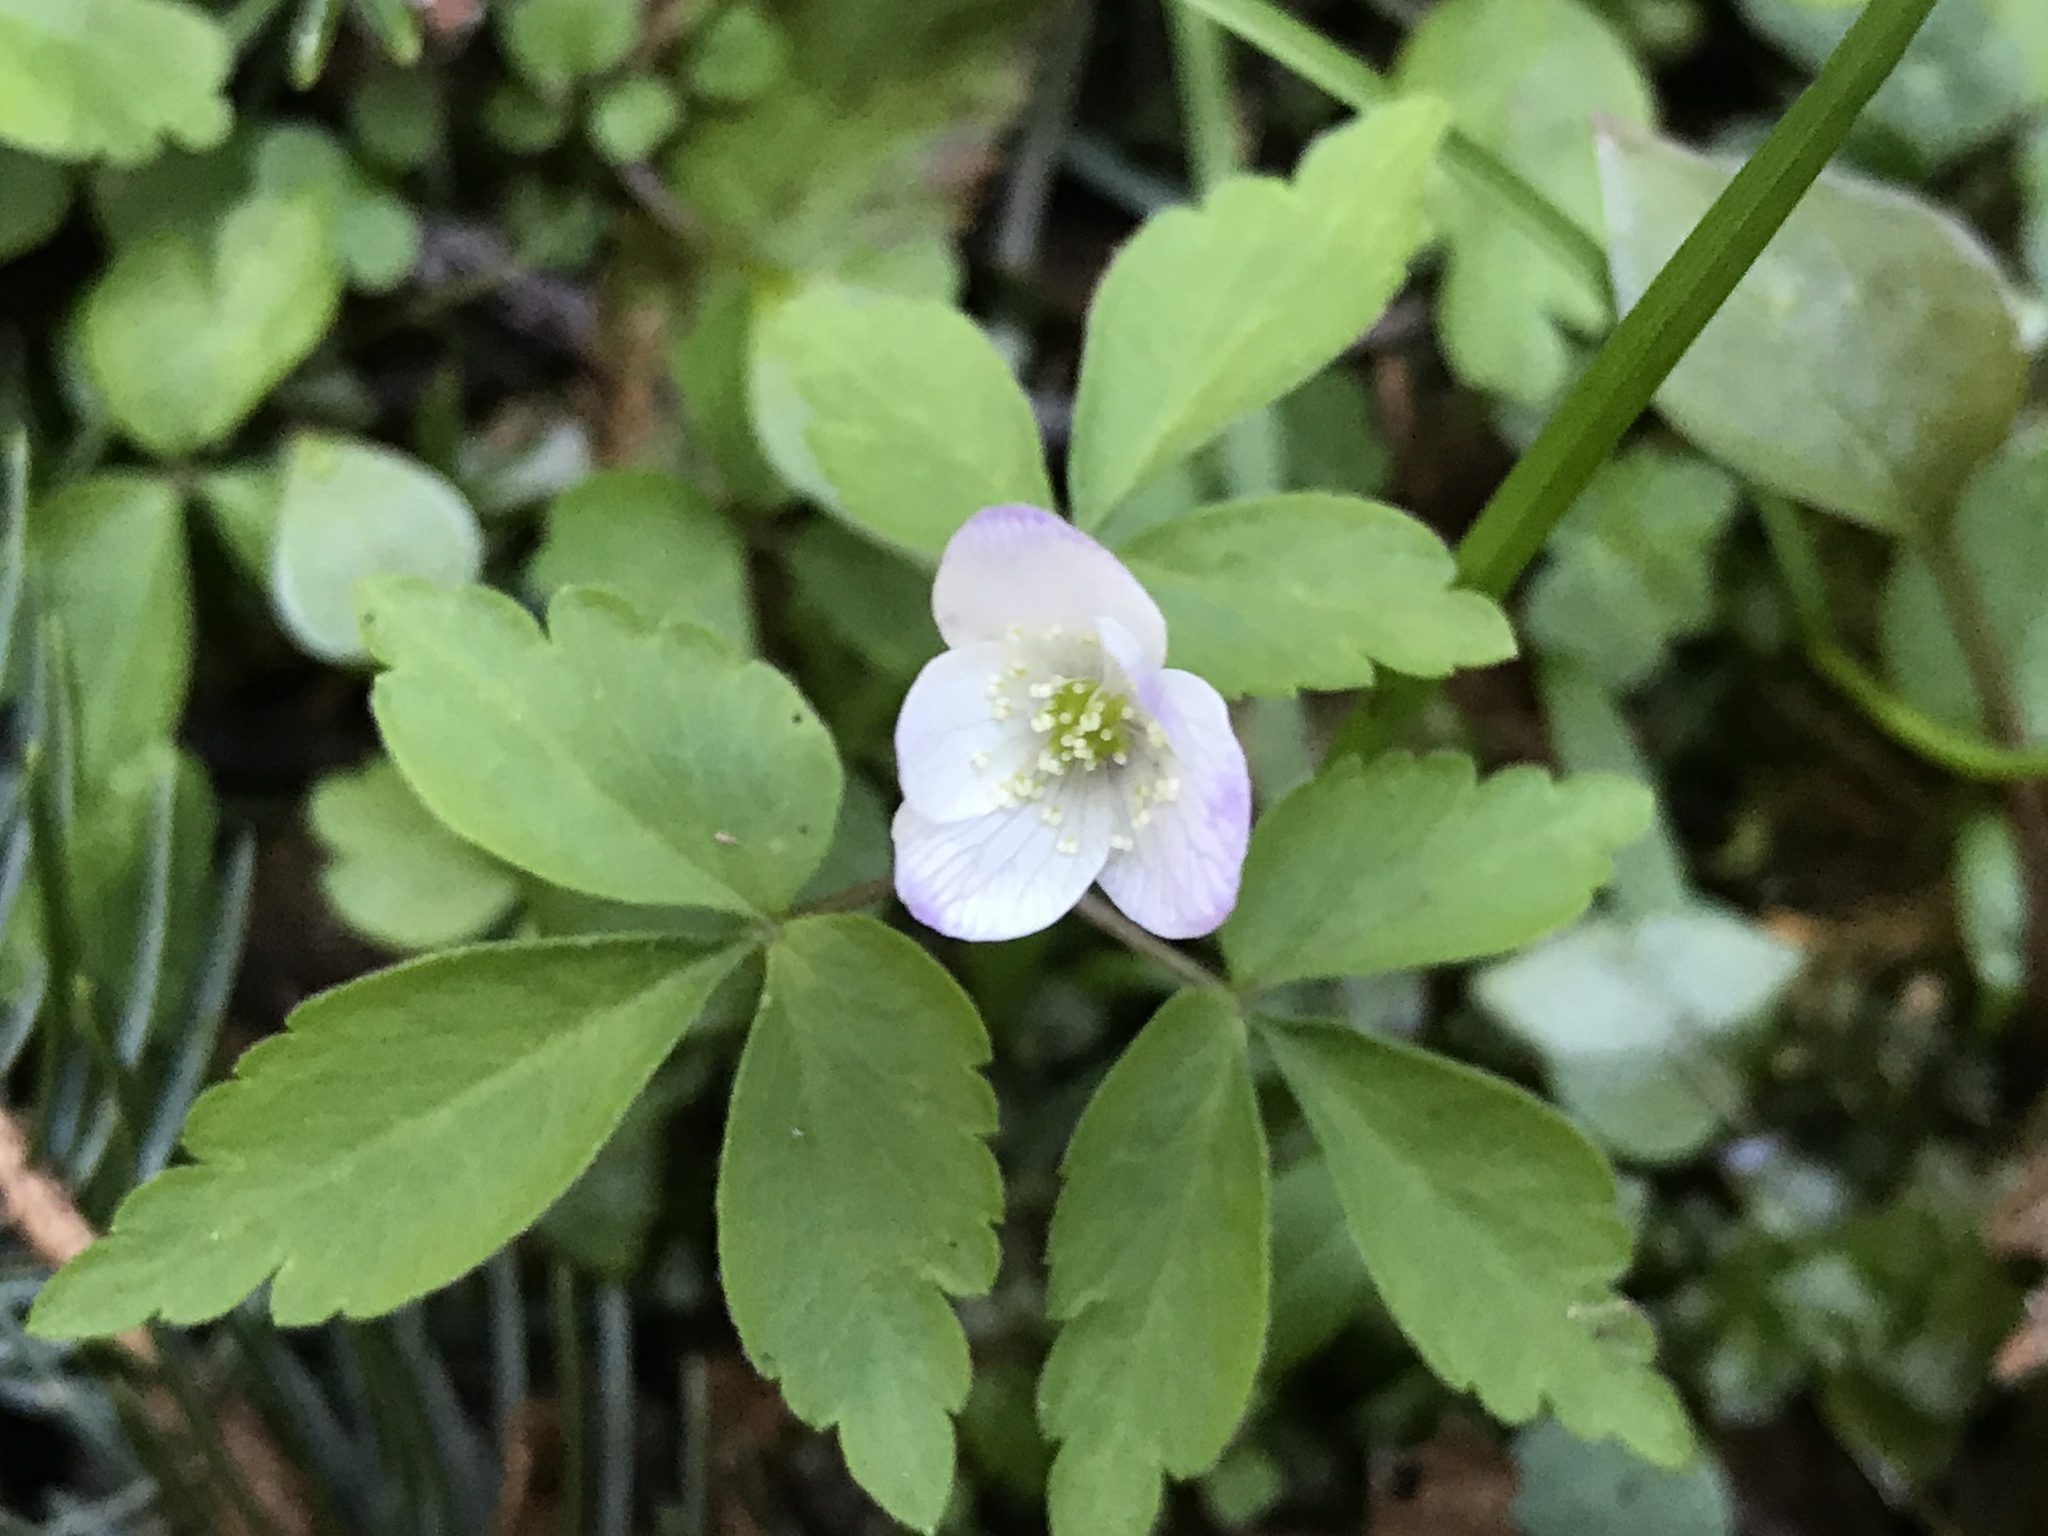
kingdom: Plantae
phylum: Tracheophyta
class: Magnoliopsida
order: Ranunculales
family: Ranunculaceae
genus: Anemone
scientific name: Anemone oregana
